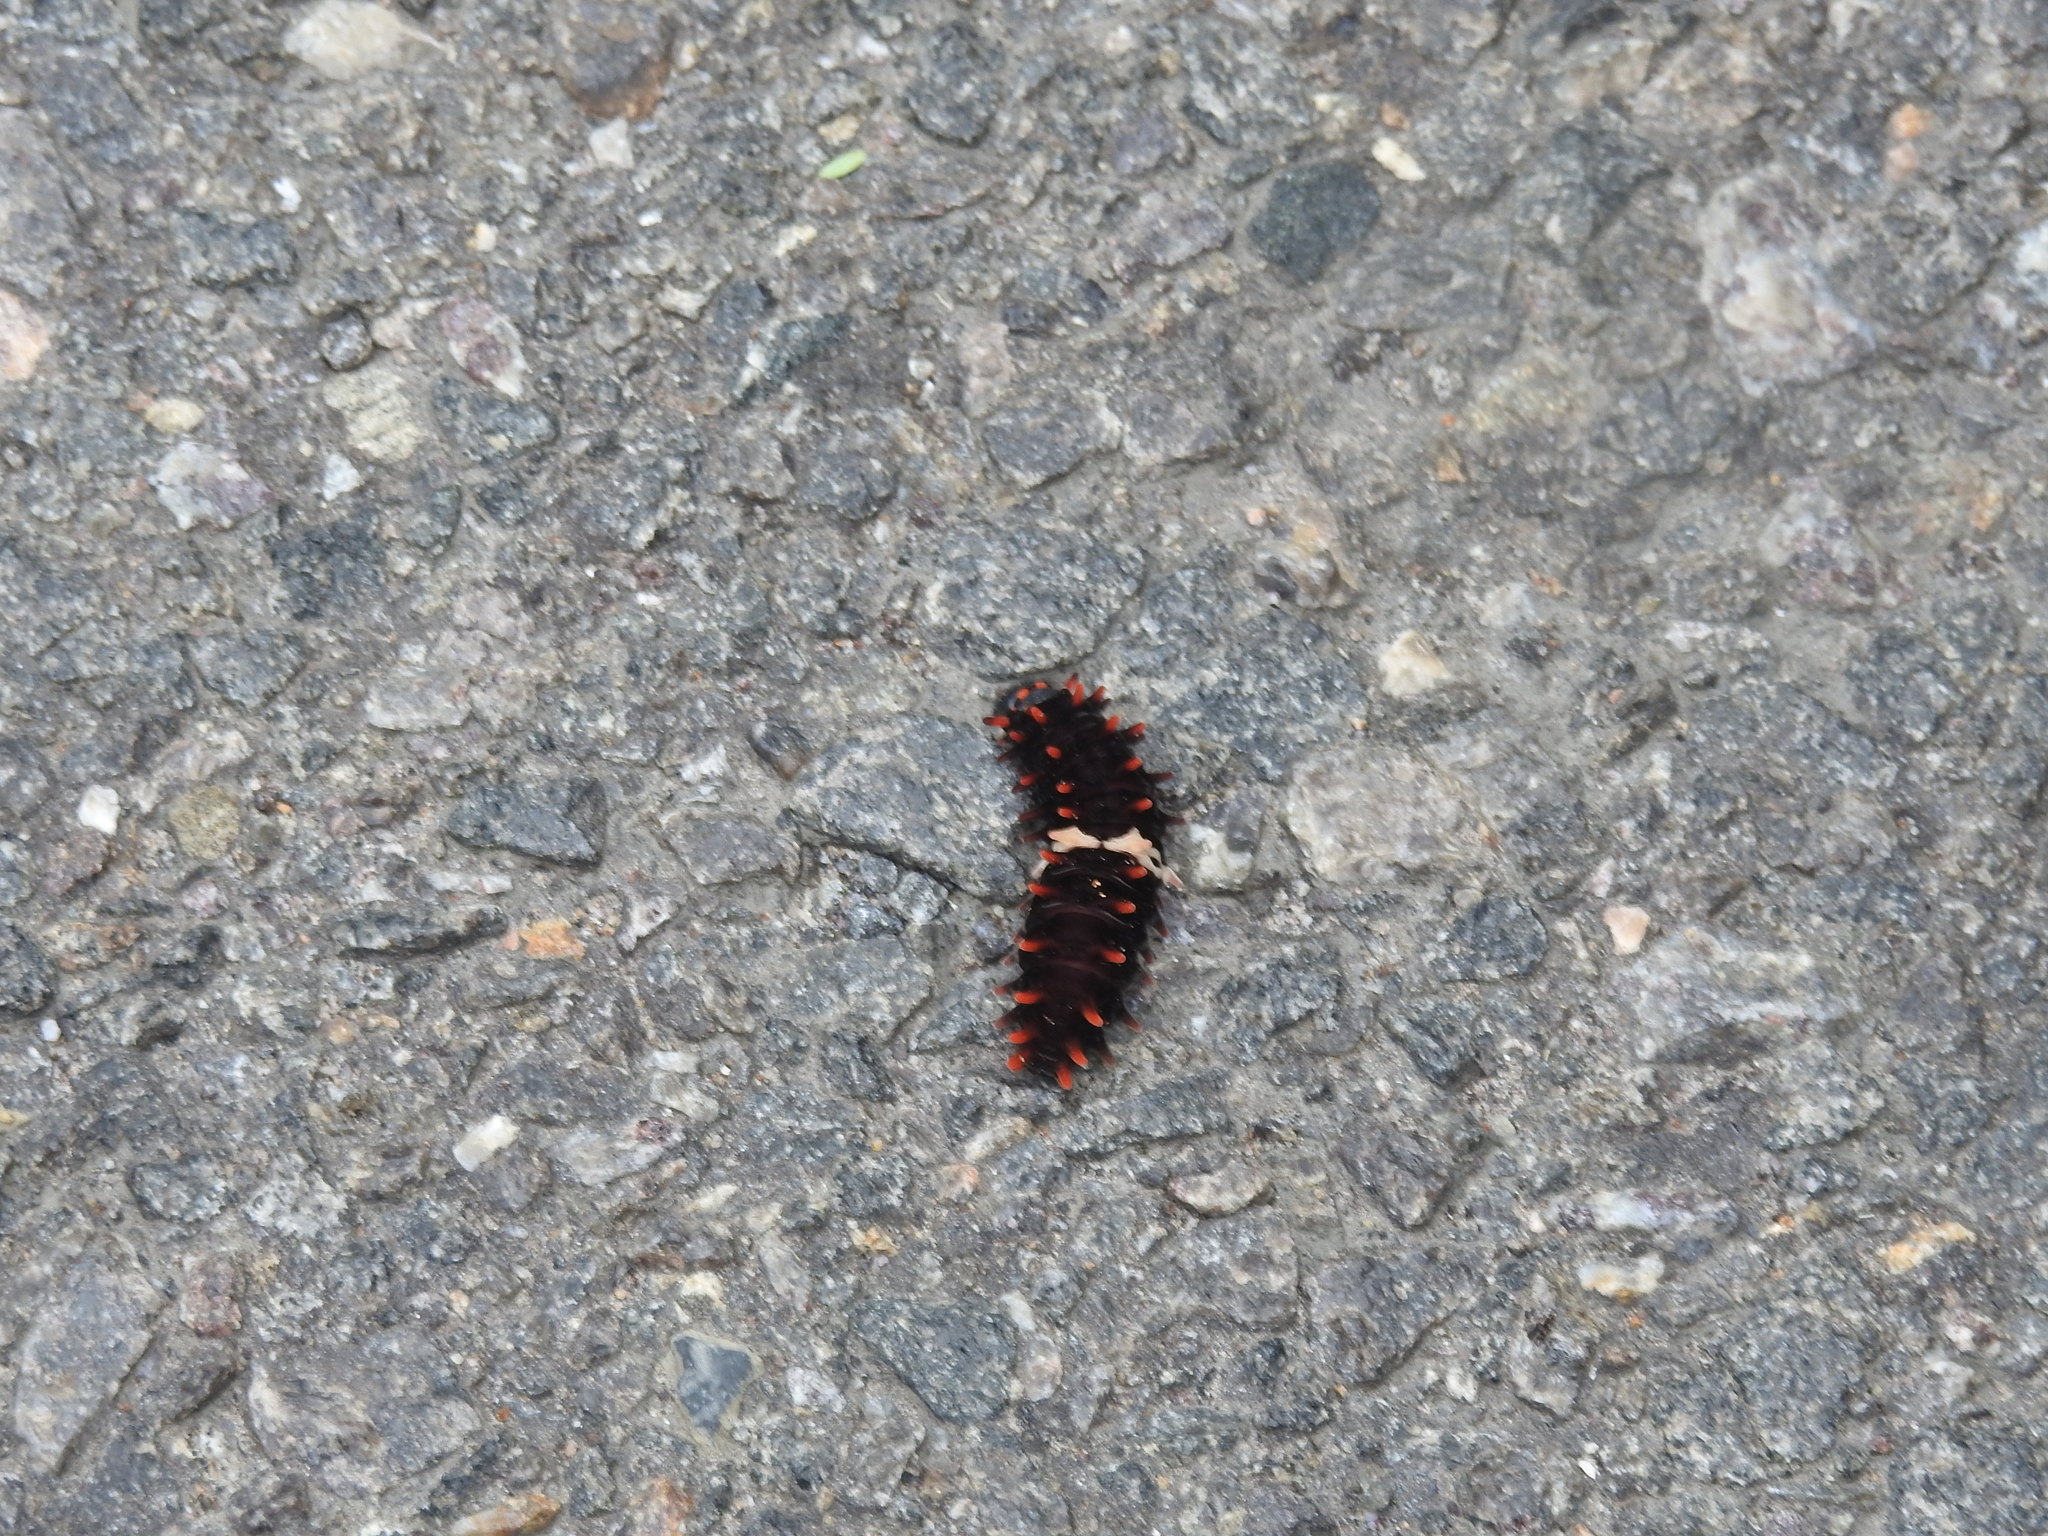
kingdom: Animalia
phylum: Arthropoda
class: Insecta
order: Lepidoptera
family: Papilionidae
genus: Pachliopta
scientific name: Pachliopta aristolochiae
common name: Common rose
